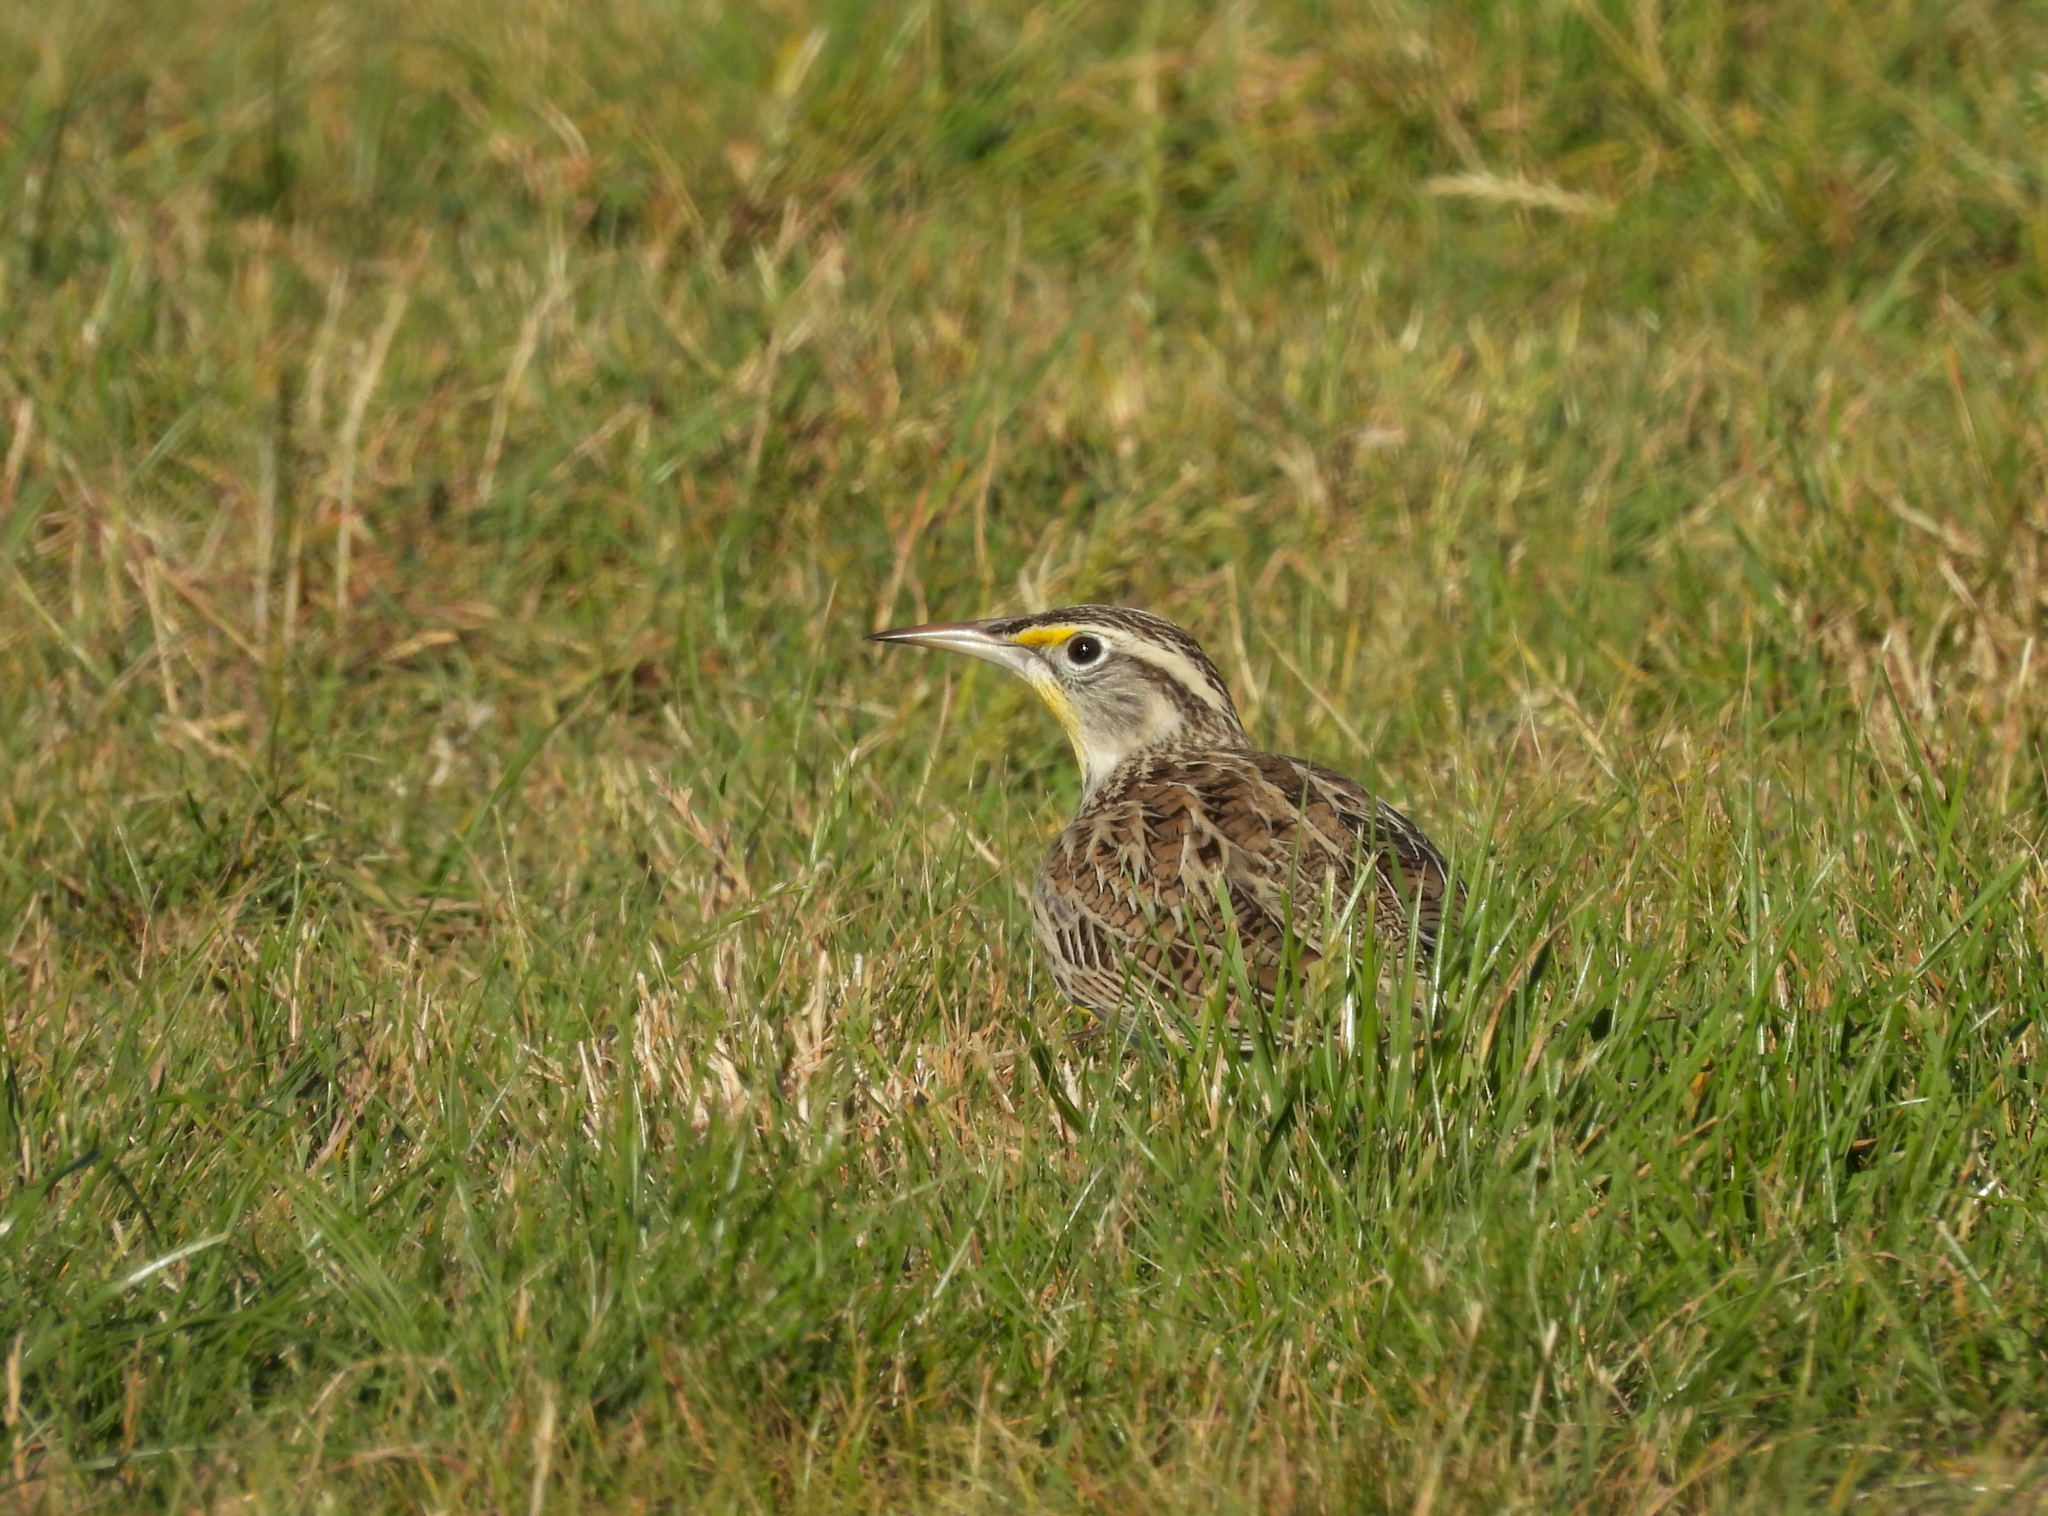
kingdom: Animalia
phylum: Chordata
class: Aves
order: Passeriformes
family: Icteridae
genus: Sturnella
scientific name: Sturnella neglecta
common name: Western meadowlark
